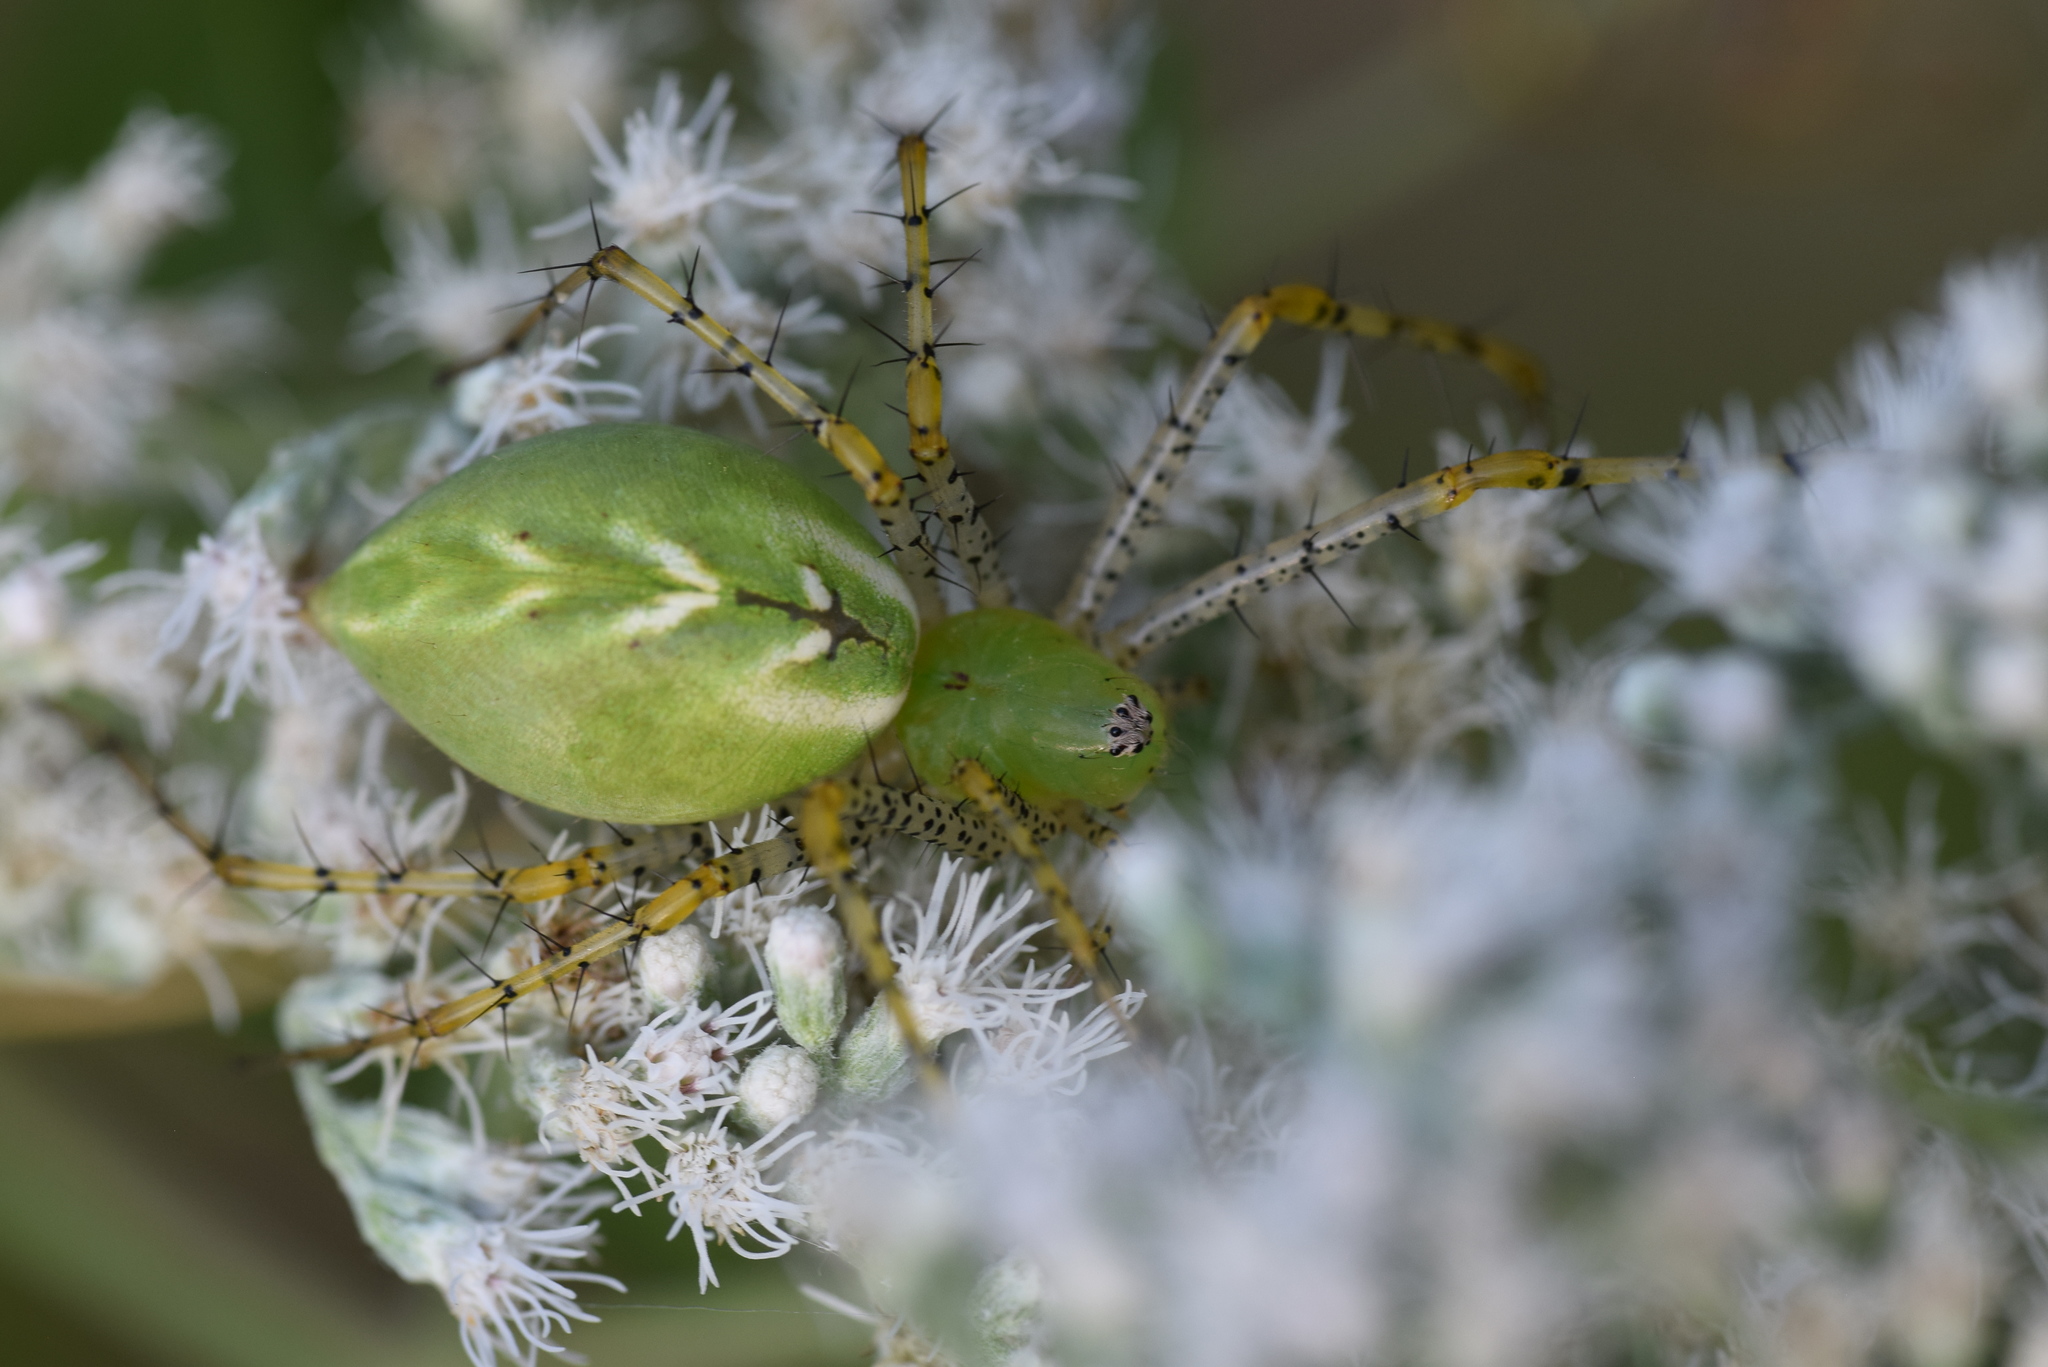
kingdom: Animalia
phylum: Arthropoda
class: Arachnida
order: Araneae
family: Oxyopidae
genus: Peucetia
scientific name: Peucetia viridans
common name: Lynx spiders
